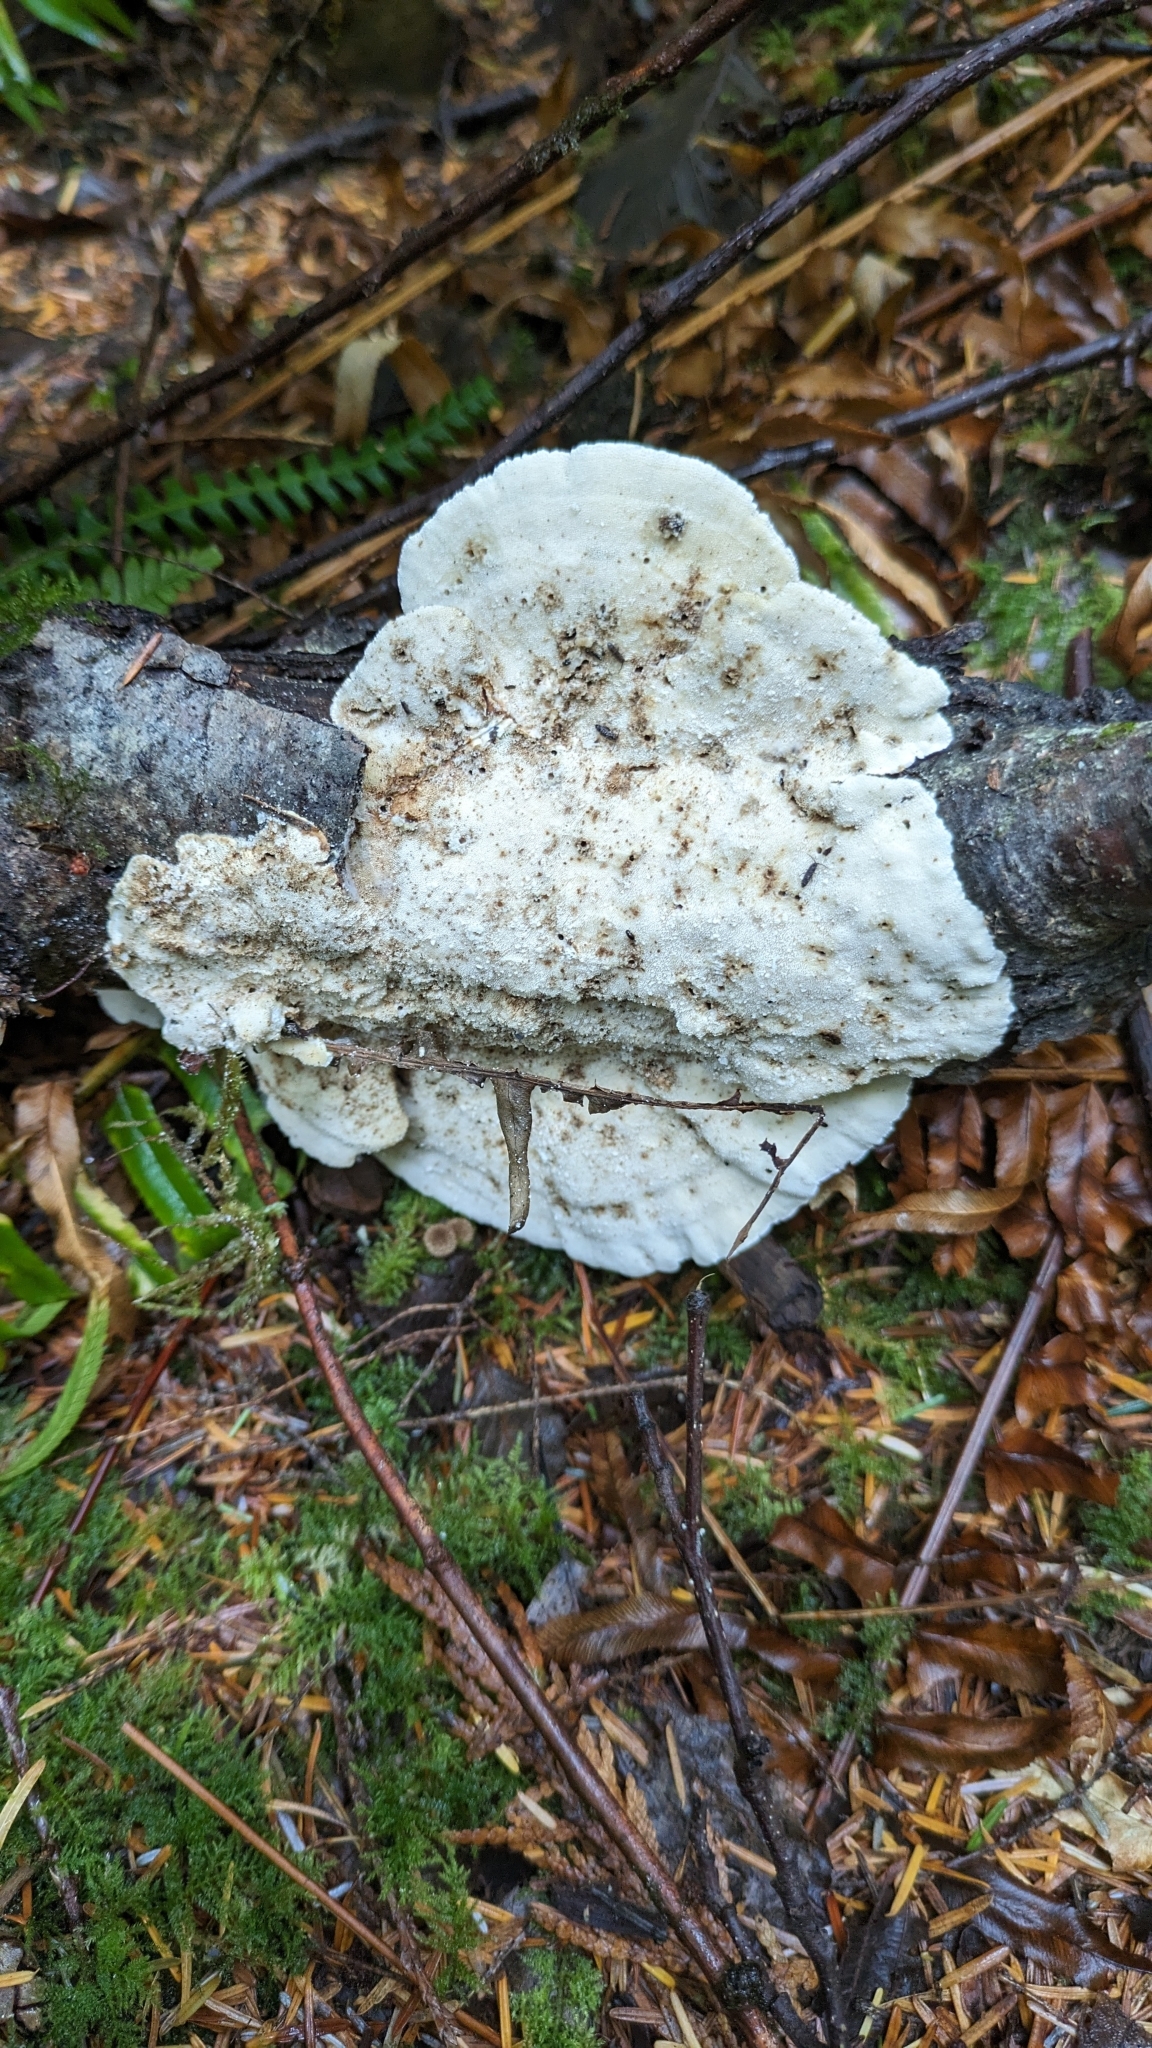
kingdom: Fungi
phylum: Basidiomycota
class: Agaricomycetes
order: Polyporales
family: Polyporaceae
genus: Trametes
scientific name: Trametes versicolor
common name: Turkeytail
